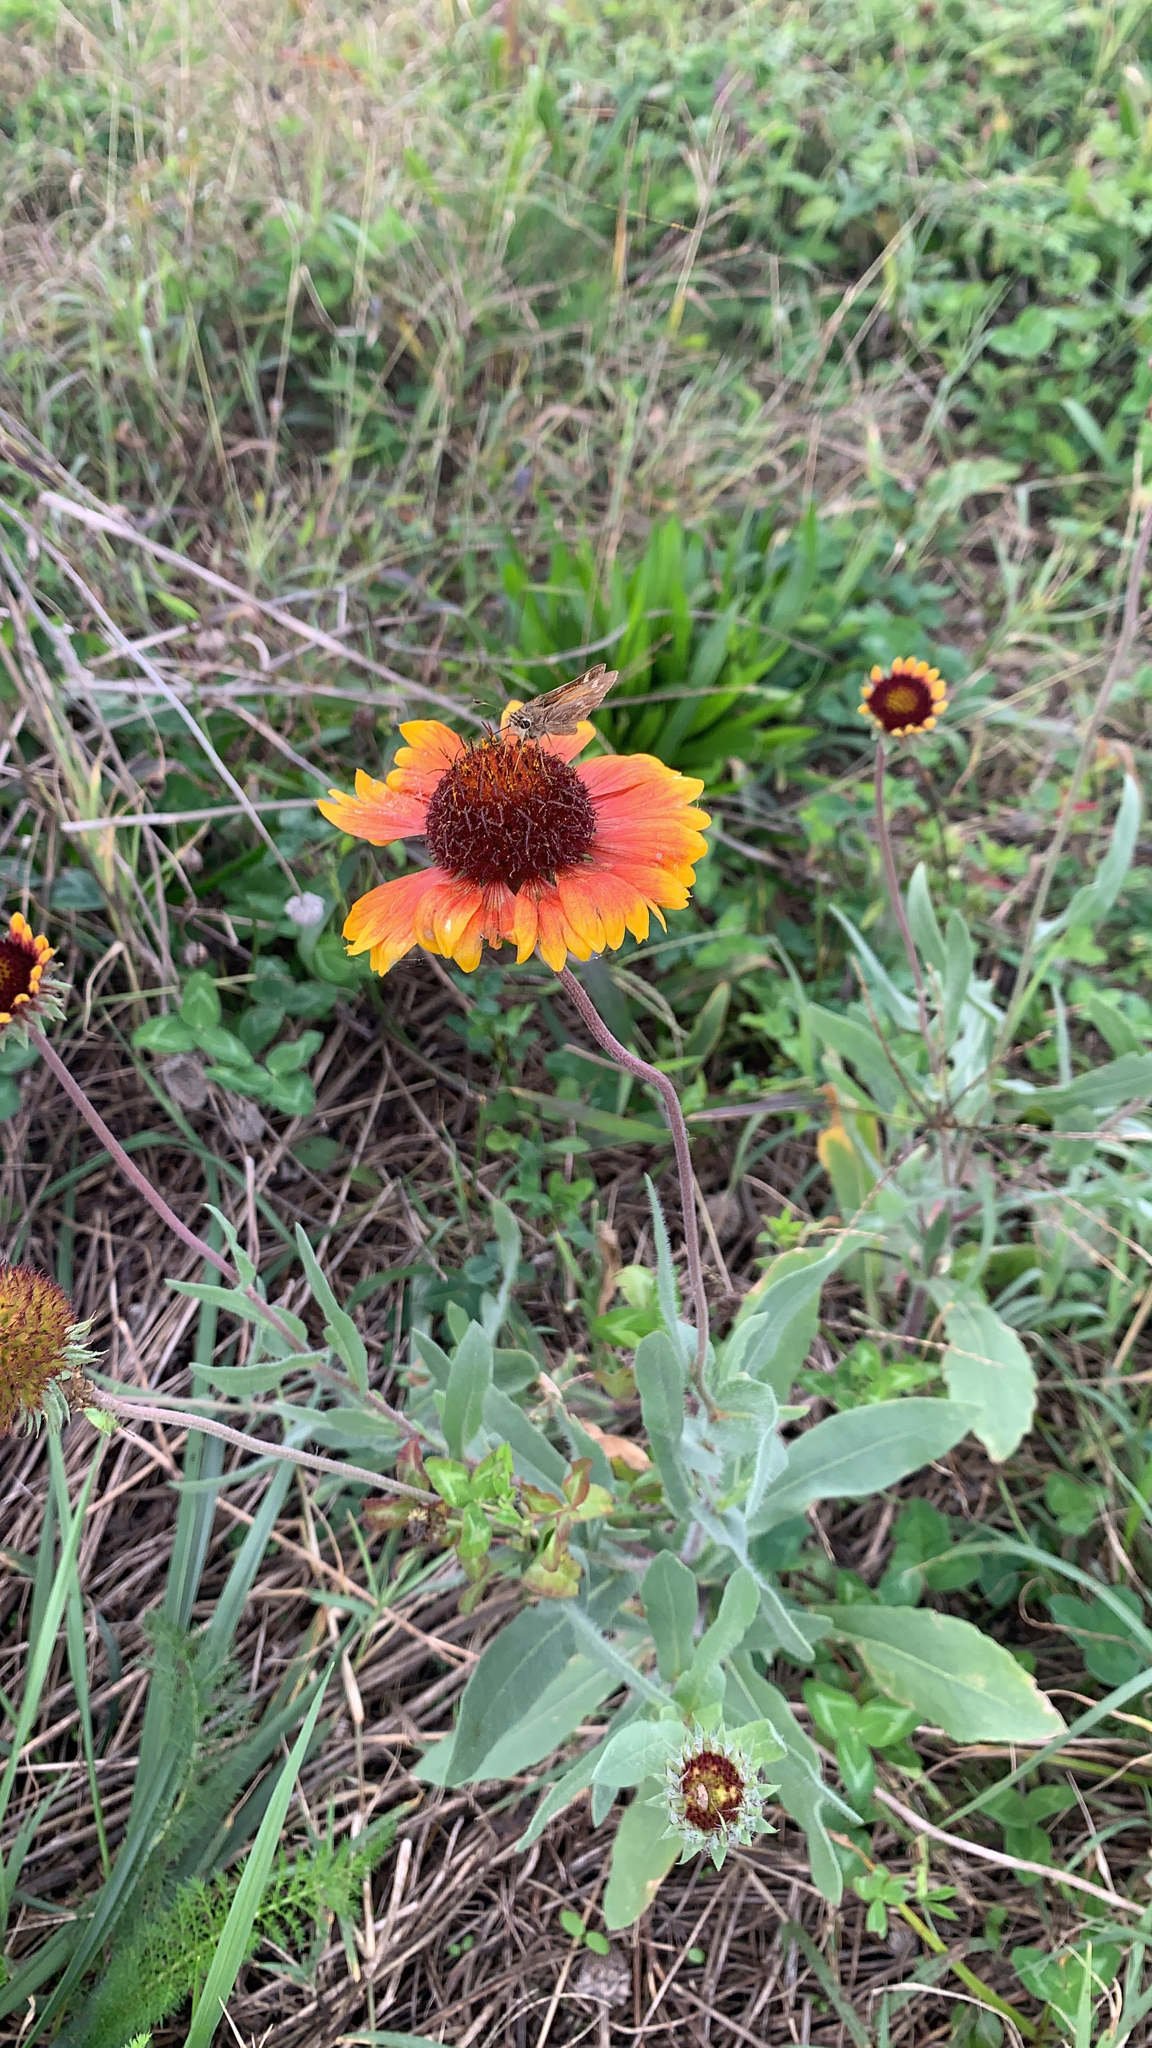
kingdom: Plantae
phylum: Tracheophyta
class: Magnoliopsida
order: Asterales
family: Asteraceae
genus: Gaillardia
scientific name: Gaillardia aristata
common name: Blanket-flower
